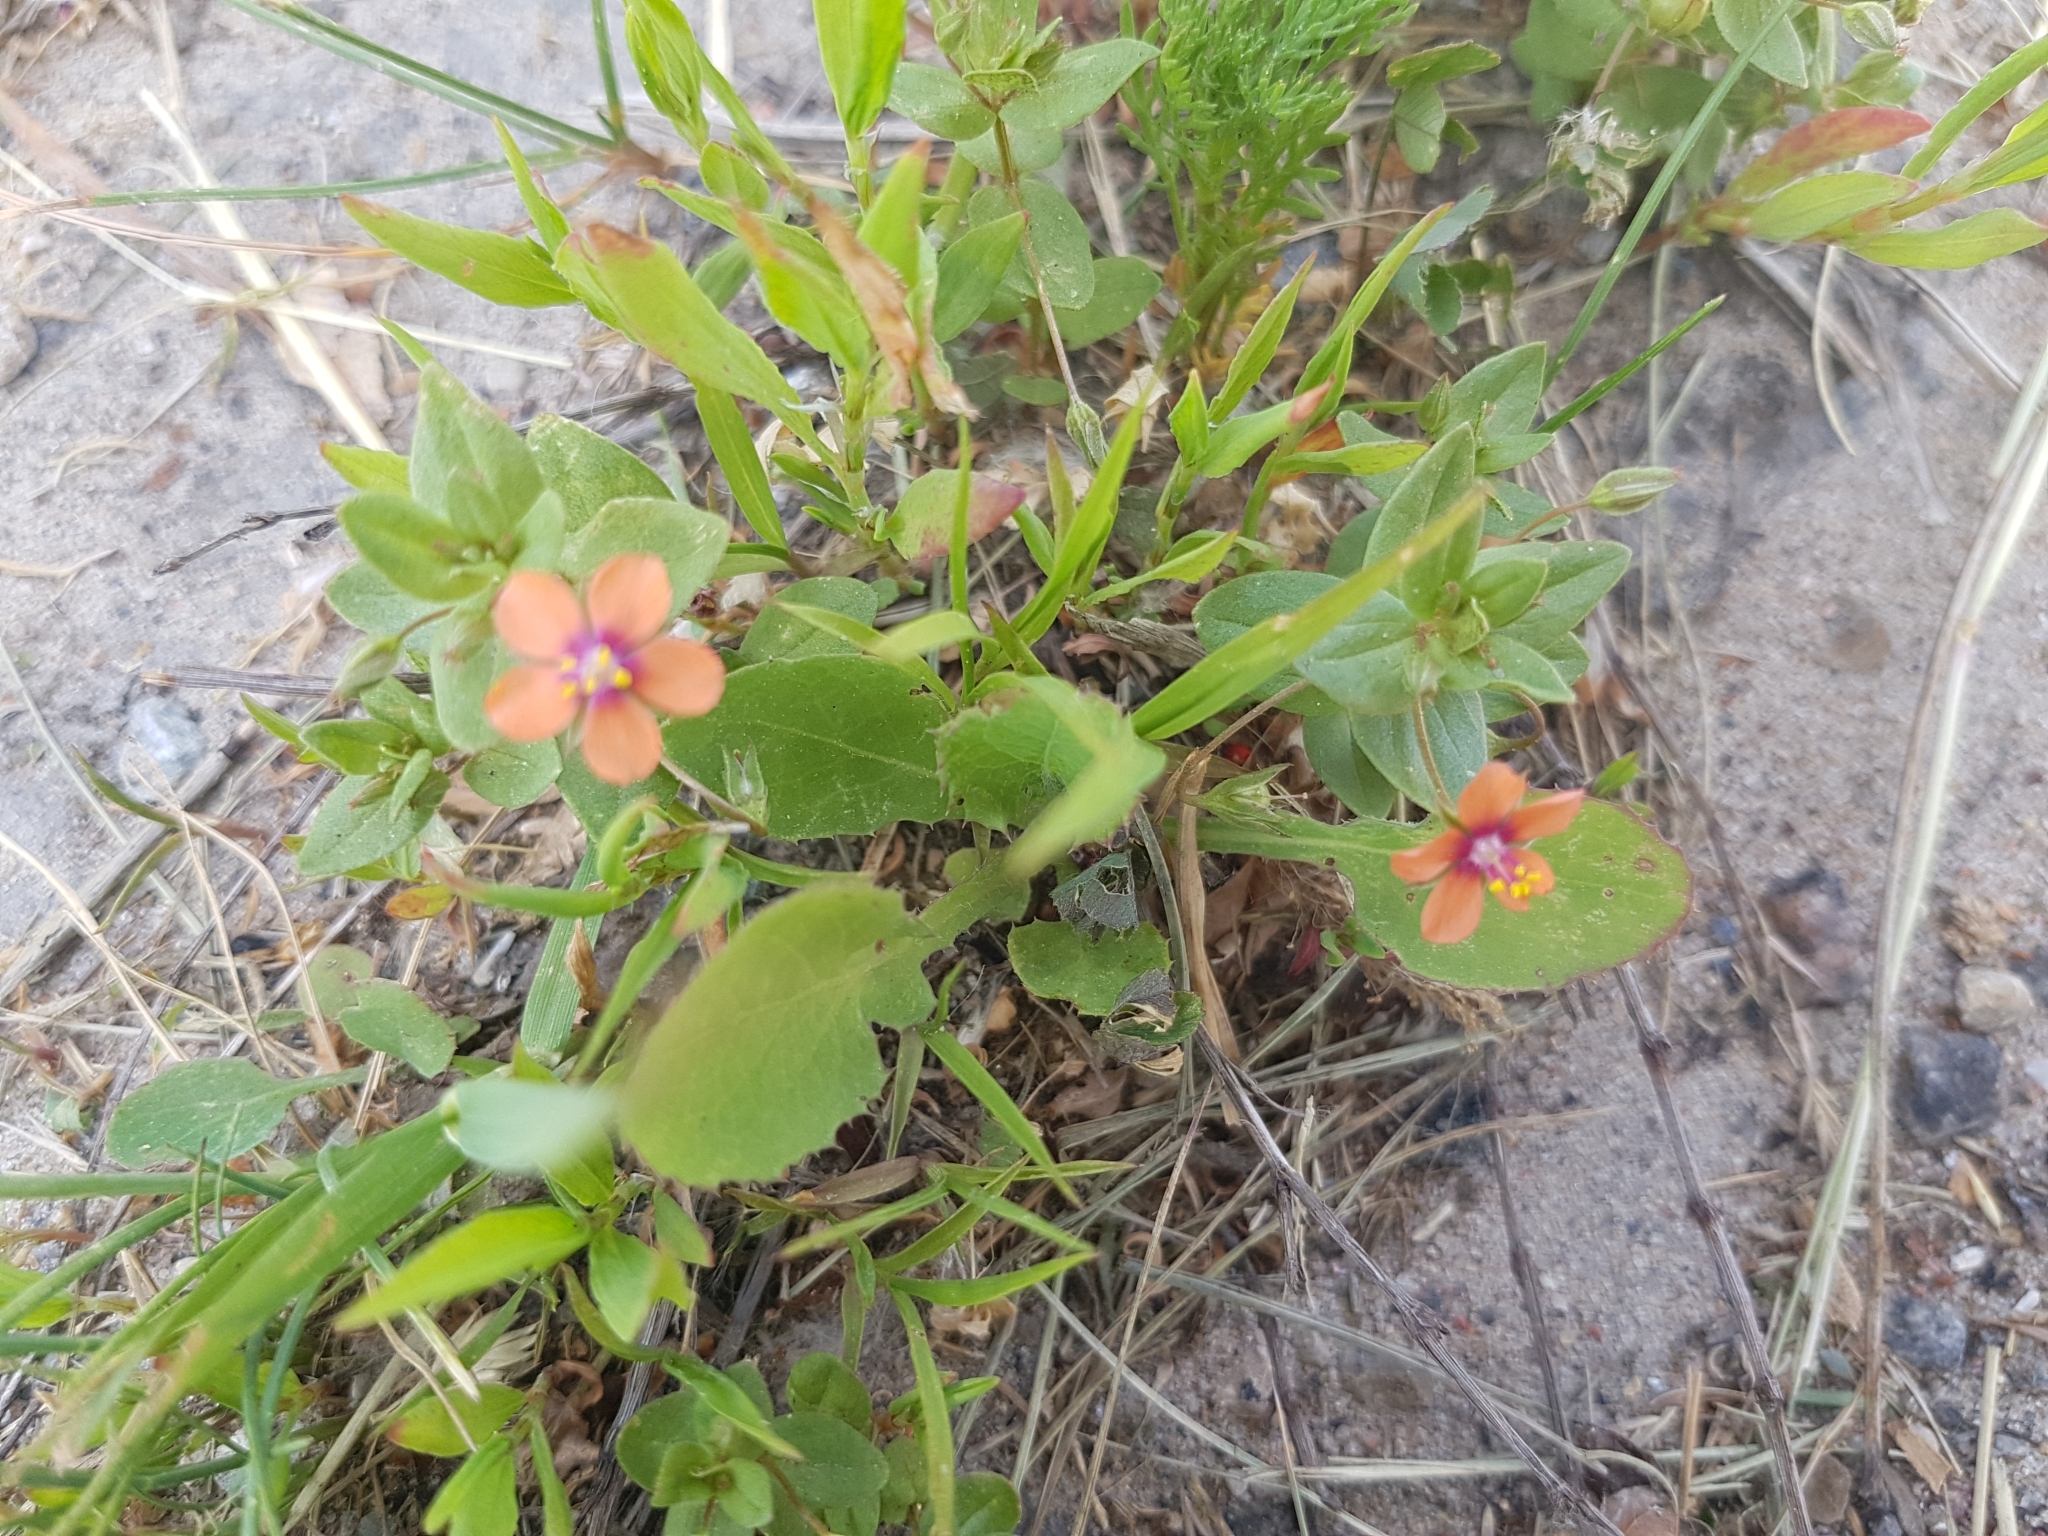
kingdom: Plantae
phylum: Tracheophyta
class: Magnoliopsida
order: Ericales
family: Primulaceae
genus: Lysimachia
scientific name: Lysimachia arvensis
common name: Scarlet pimpernel
